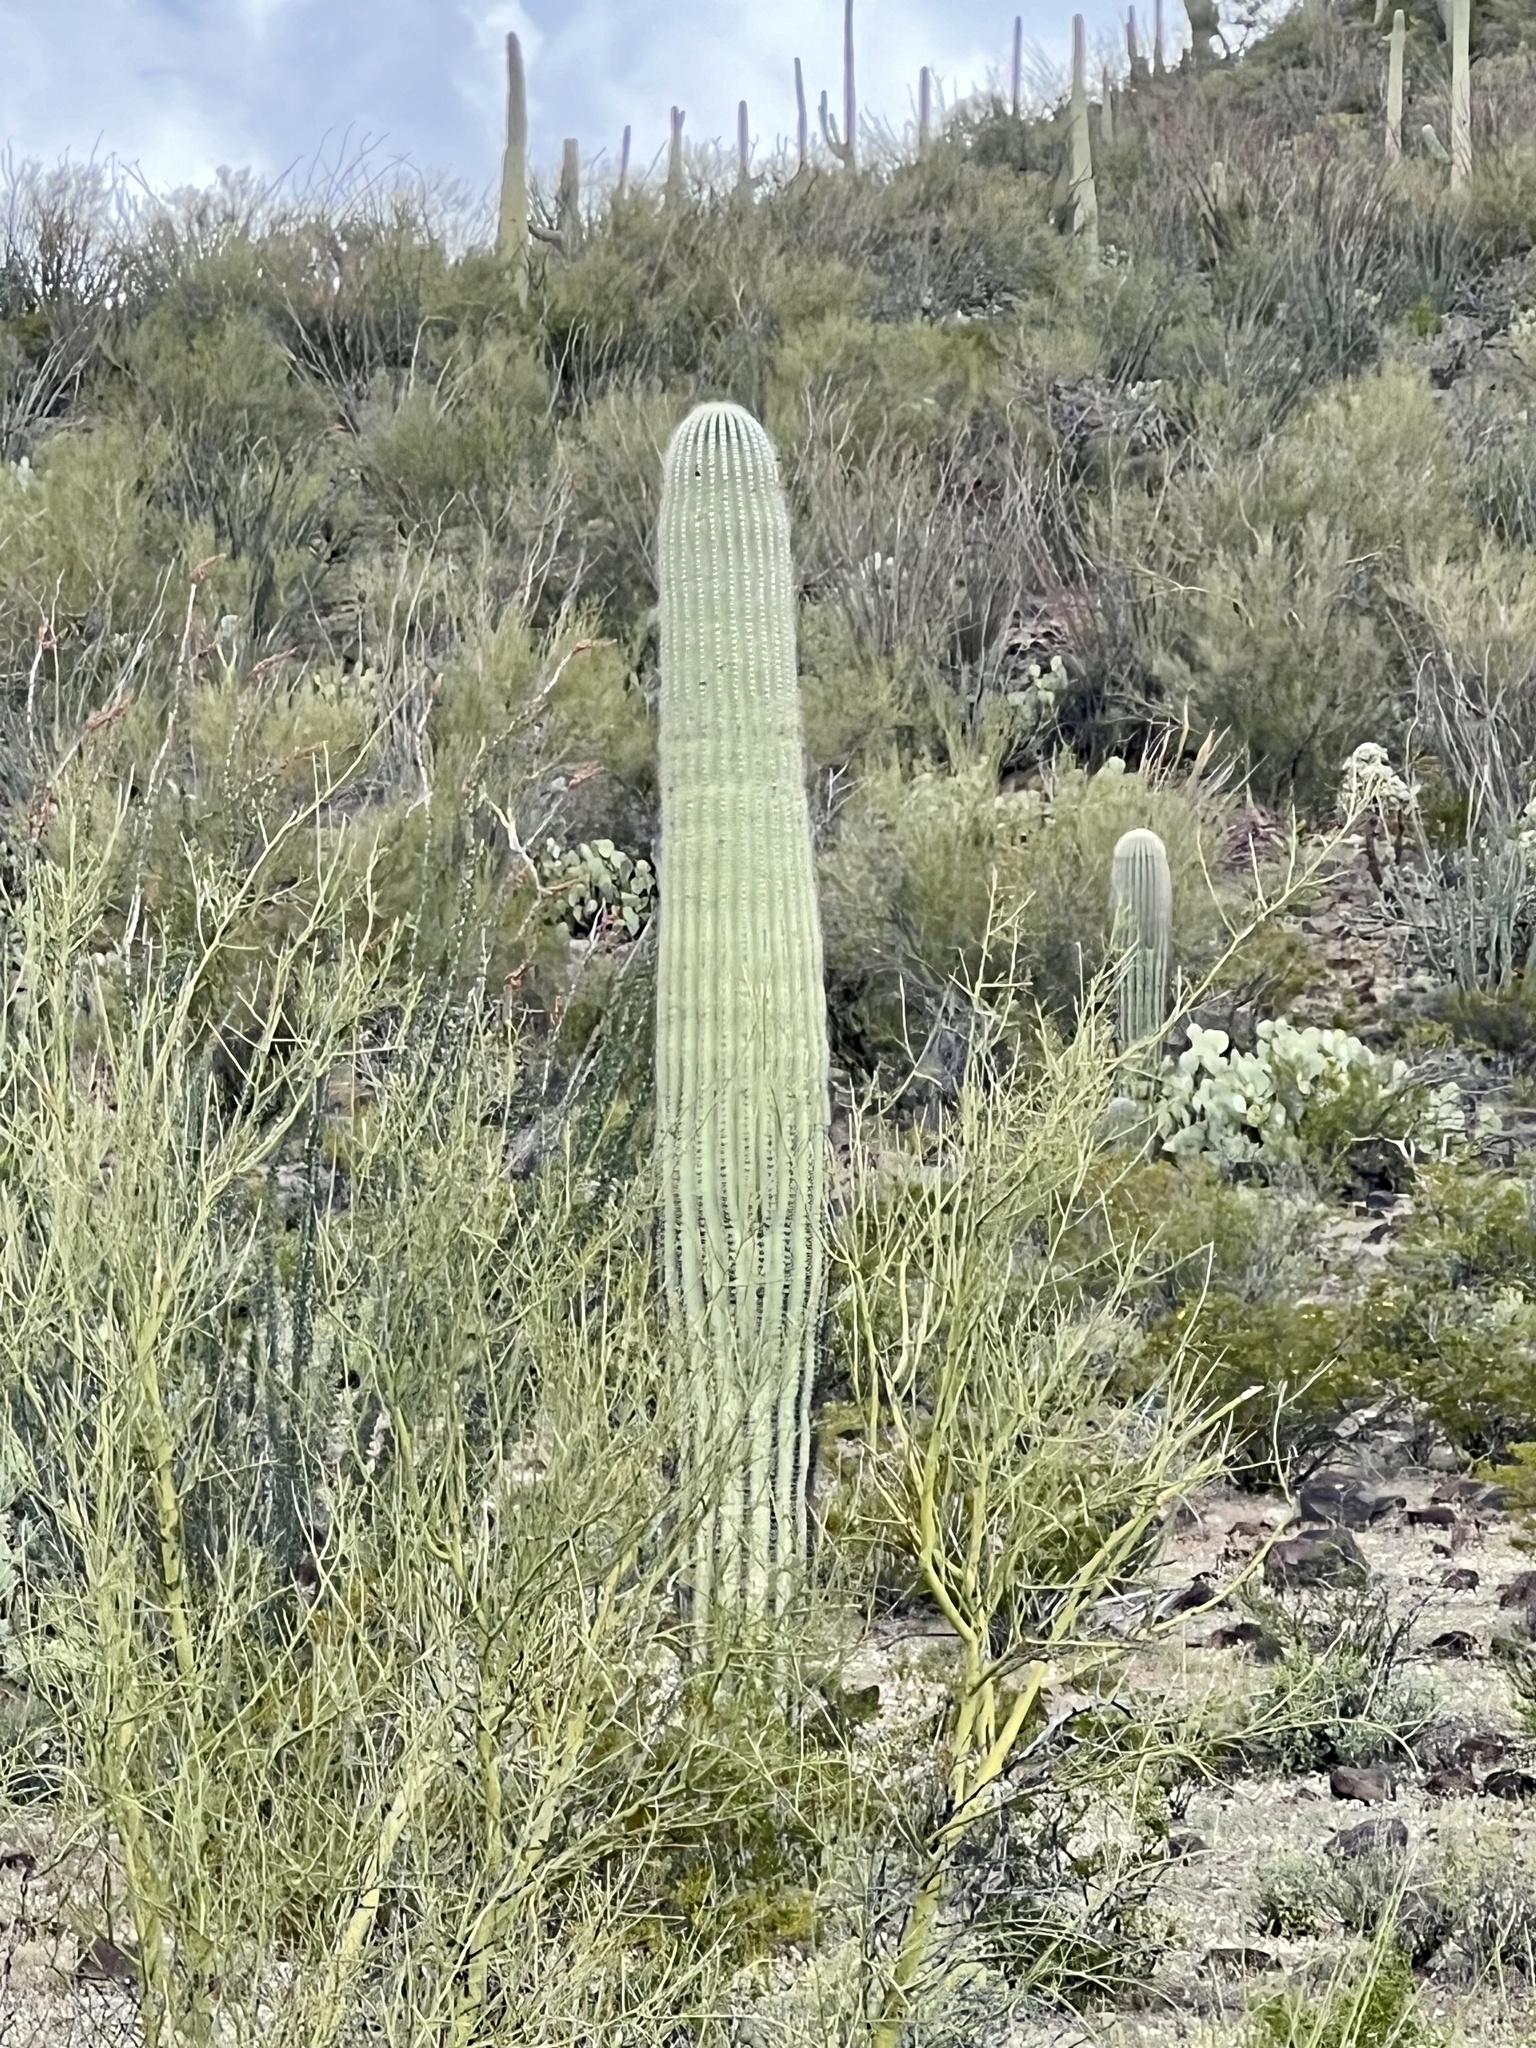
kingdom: Plantae
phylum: Tracheophyta
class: Magnoliopsida
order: Caryophyllales
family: Cactaceae
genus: Carnegiea
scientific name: Carnegiea gigantea
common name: Saguaro
